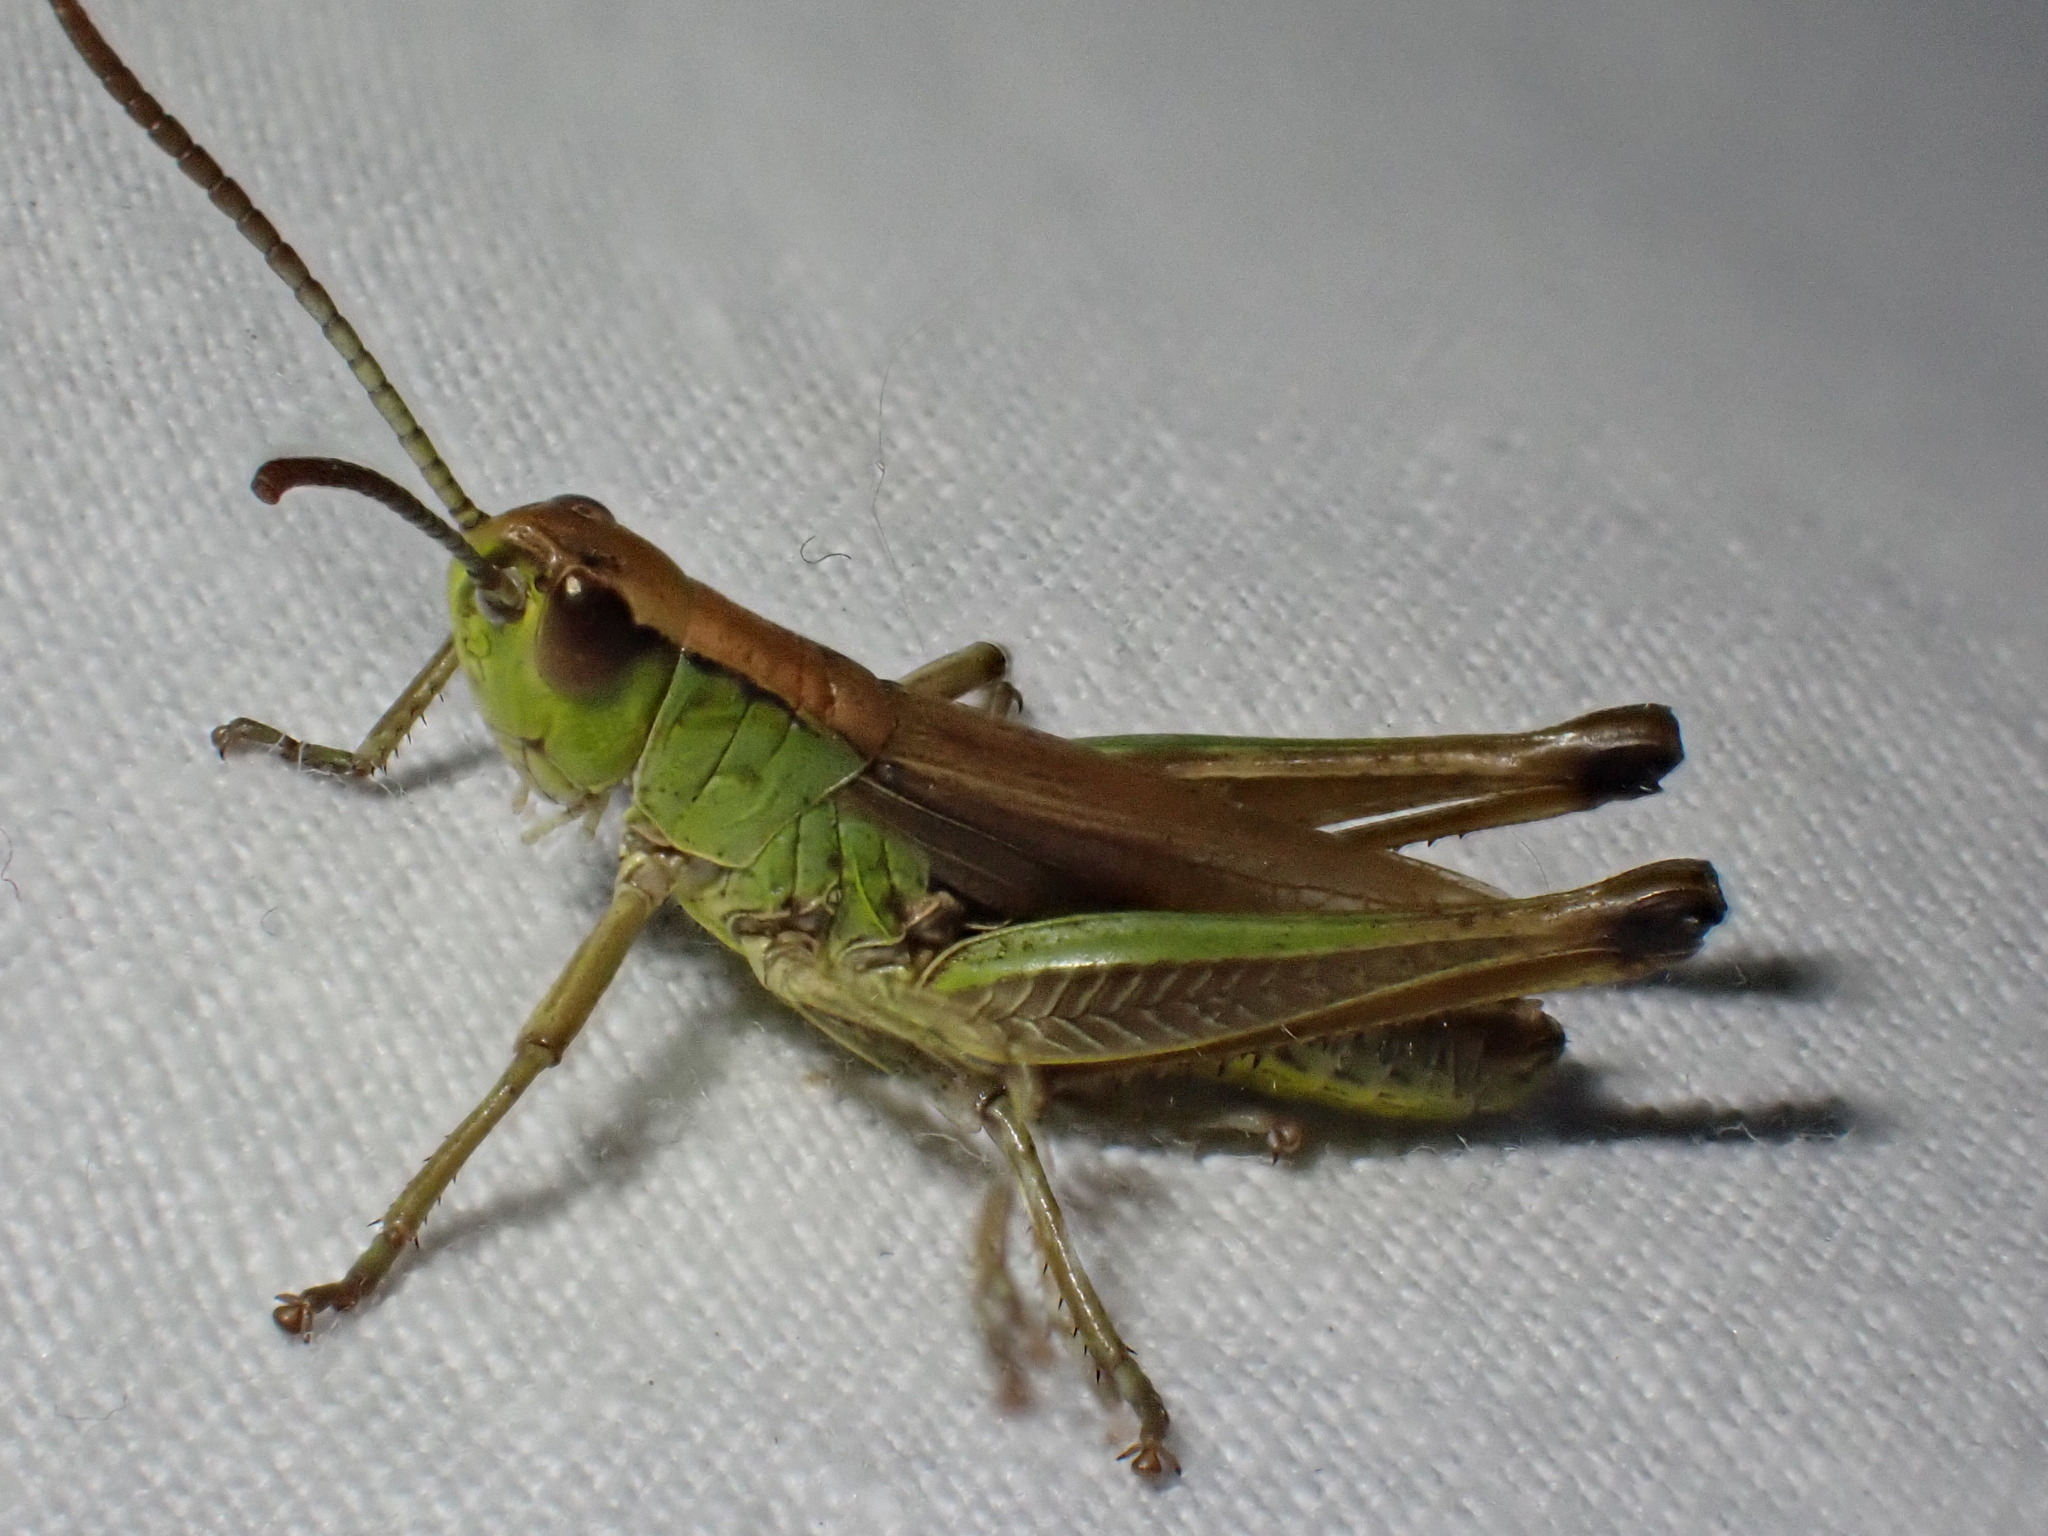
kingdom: Animalia
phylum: Arthropoda
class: Insecta
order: Orthoptera
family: Acrididae
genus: Pseudochorthippus
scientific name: Pseudochorthippus parallelus
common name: Meadow grasshopper
